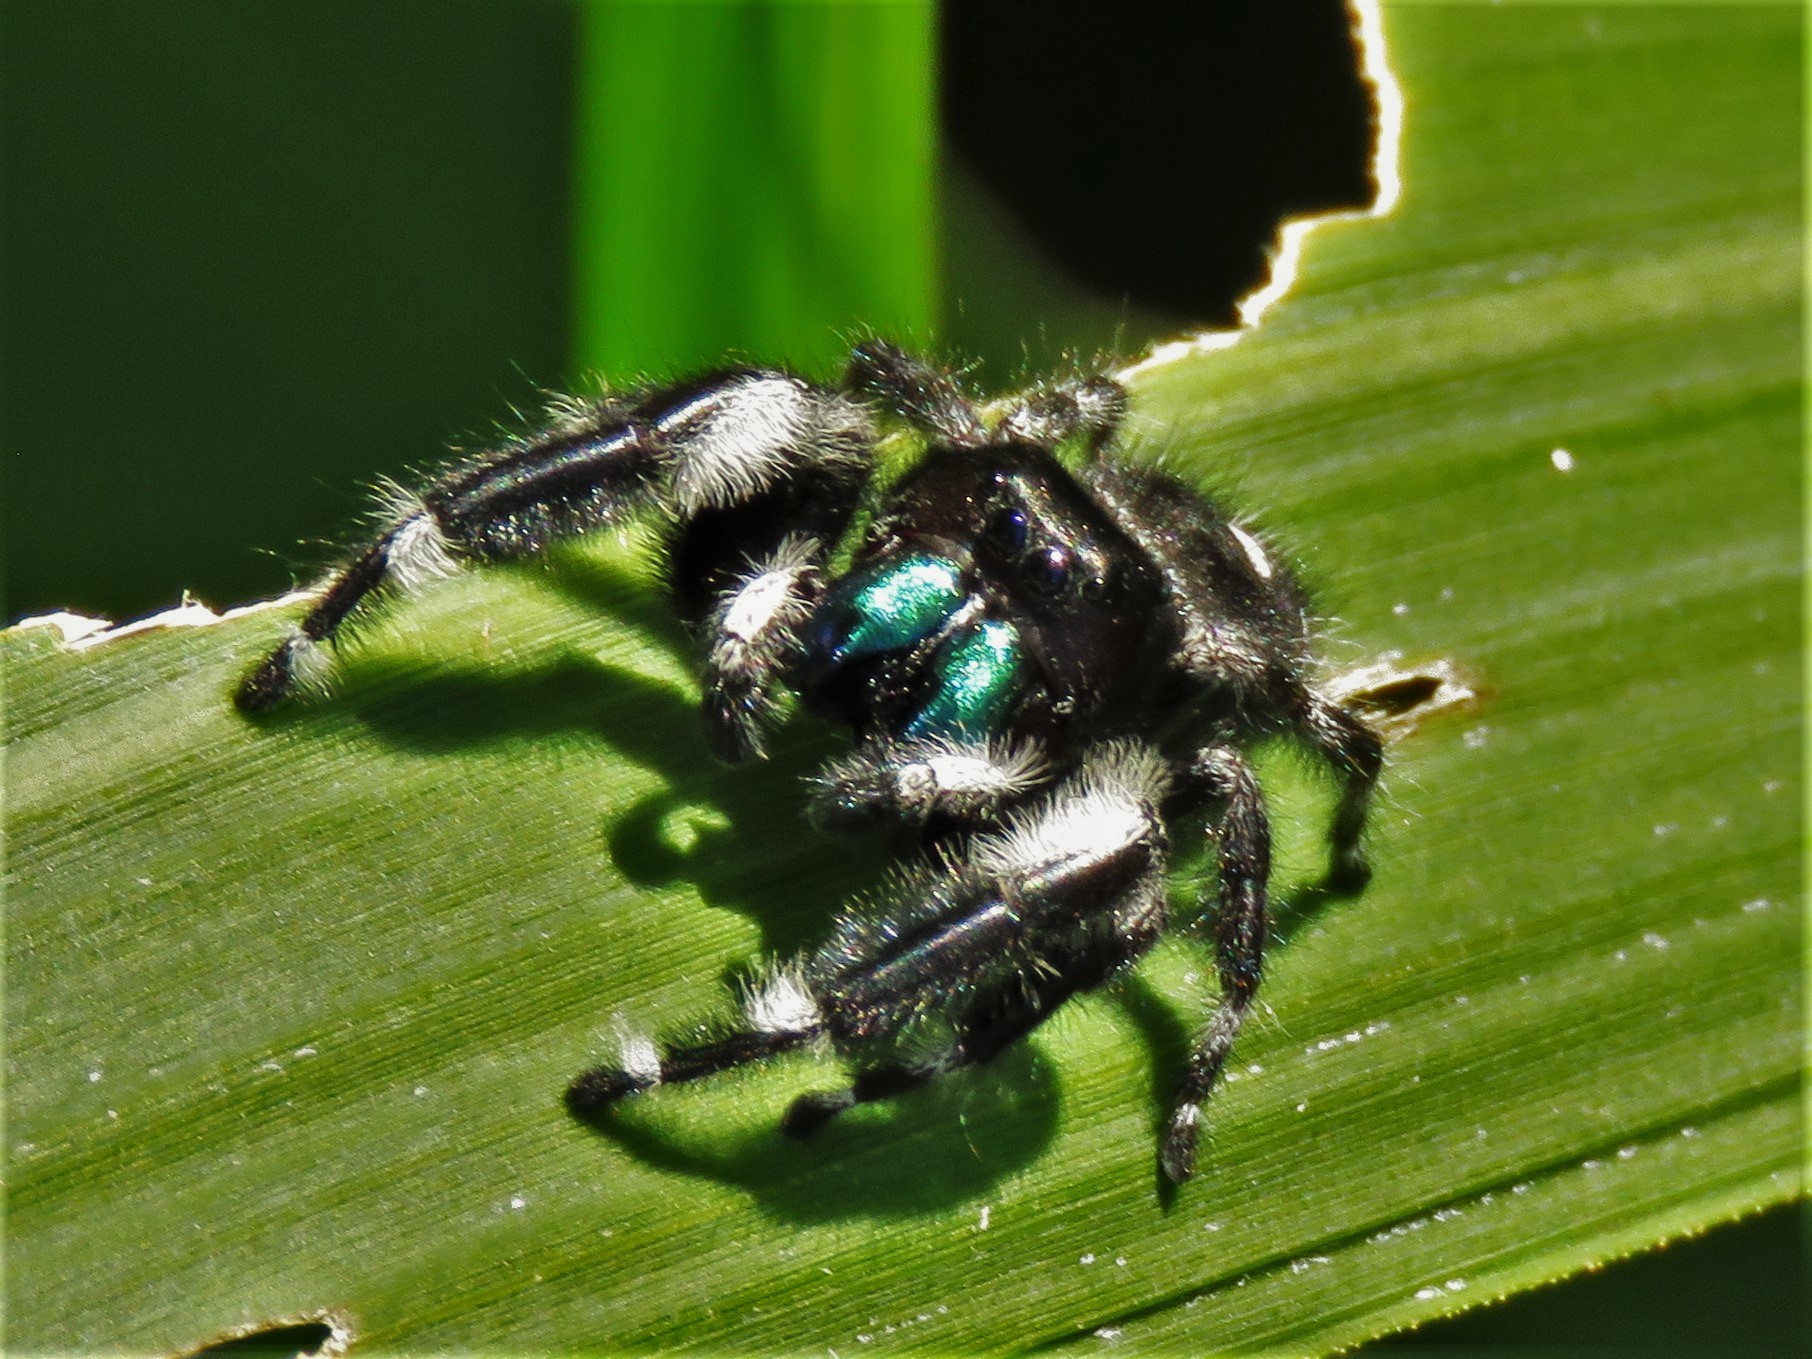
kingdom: Animalia
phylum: Arthropoda
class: Arachnida
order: Araneae
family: Salticidae
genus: Phidippus
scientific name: Phidippus audax
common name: Bold jumper
